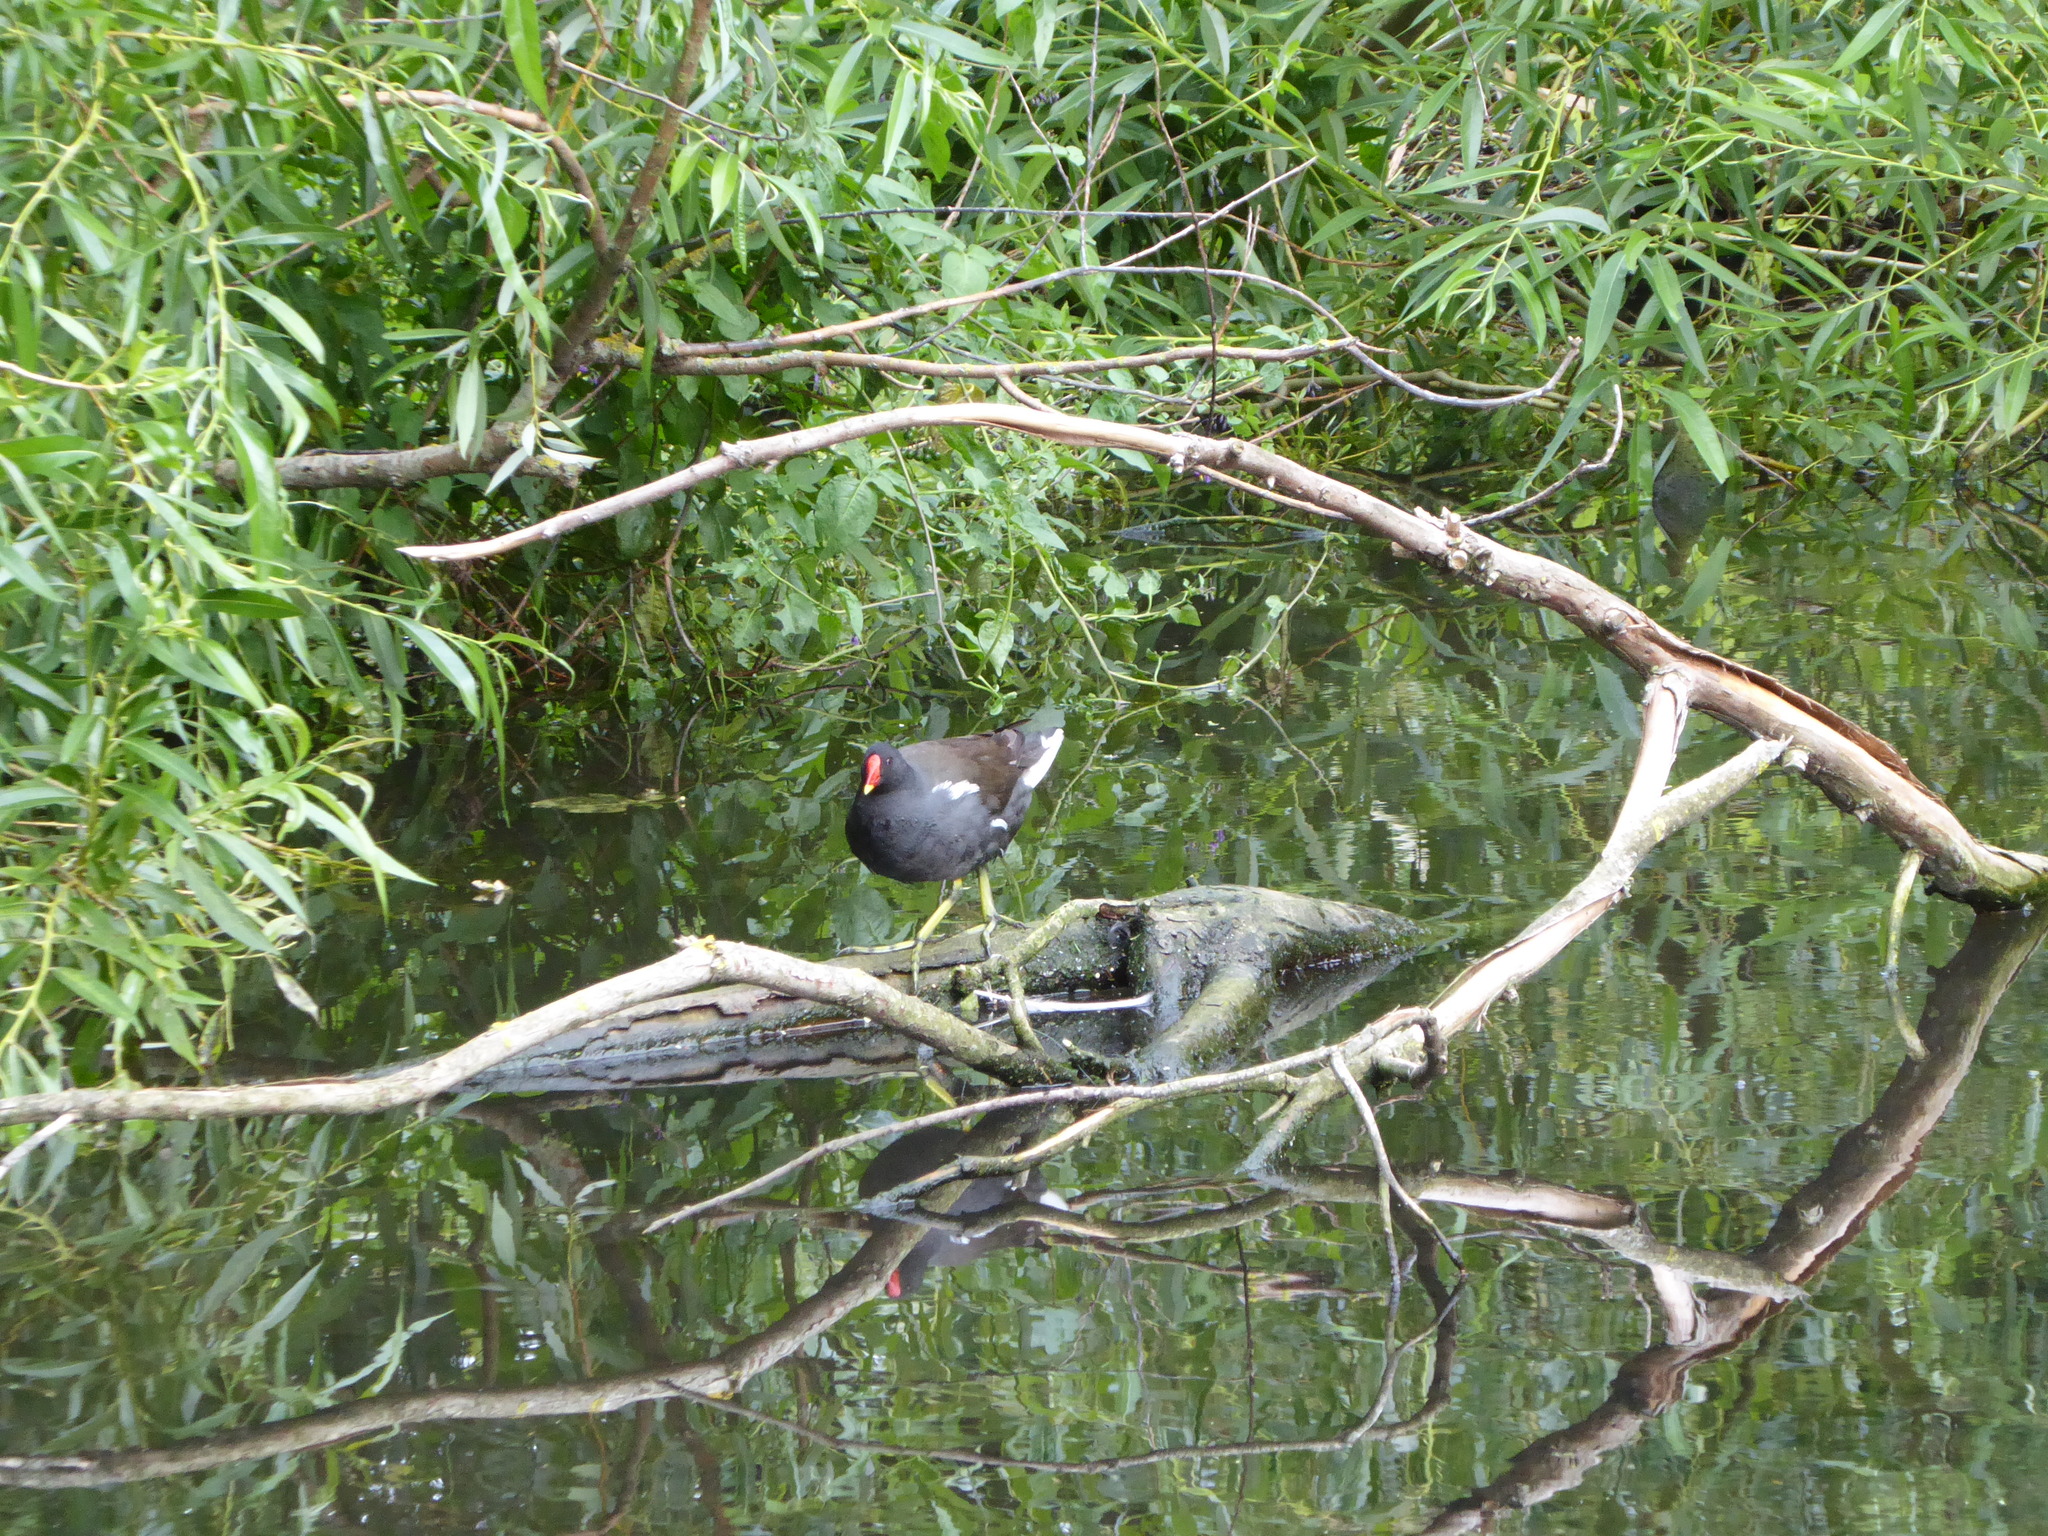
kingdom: Animalia
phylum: Chordata
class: Aves
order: Gruiformes
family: Rallidae
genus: Gallinula
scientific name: Gallinula chloropus
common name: Common moorhen
